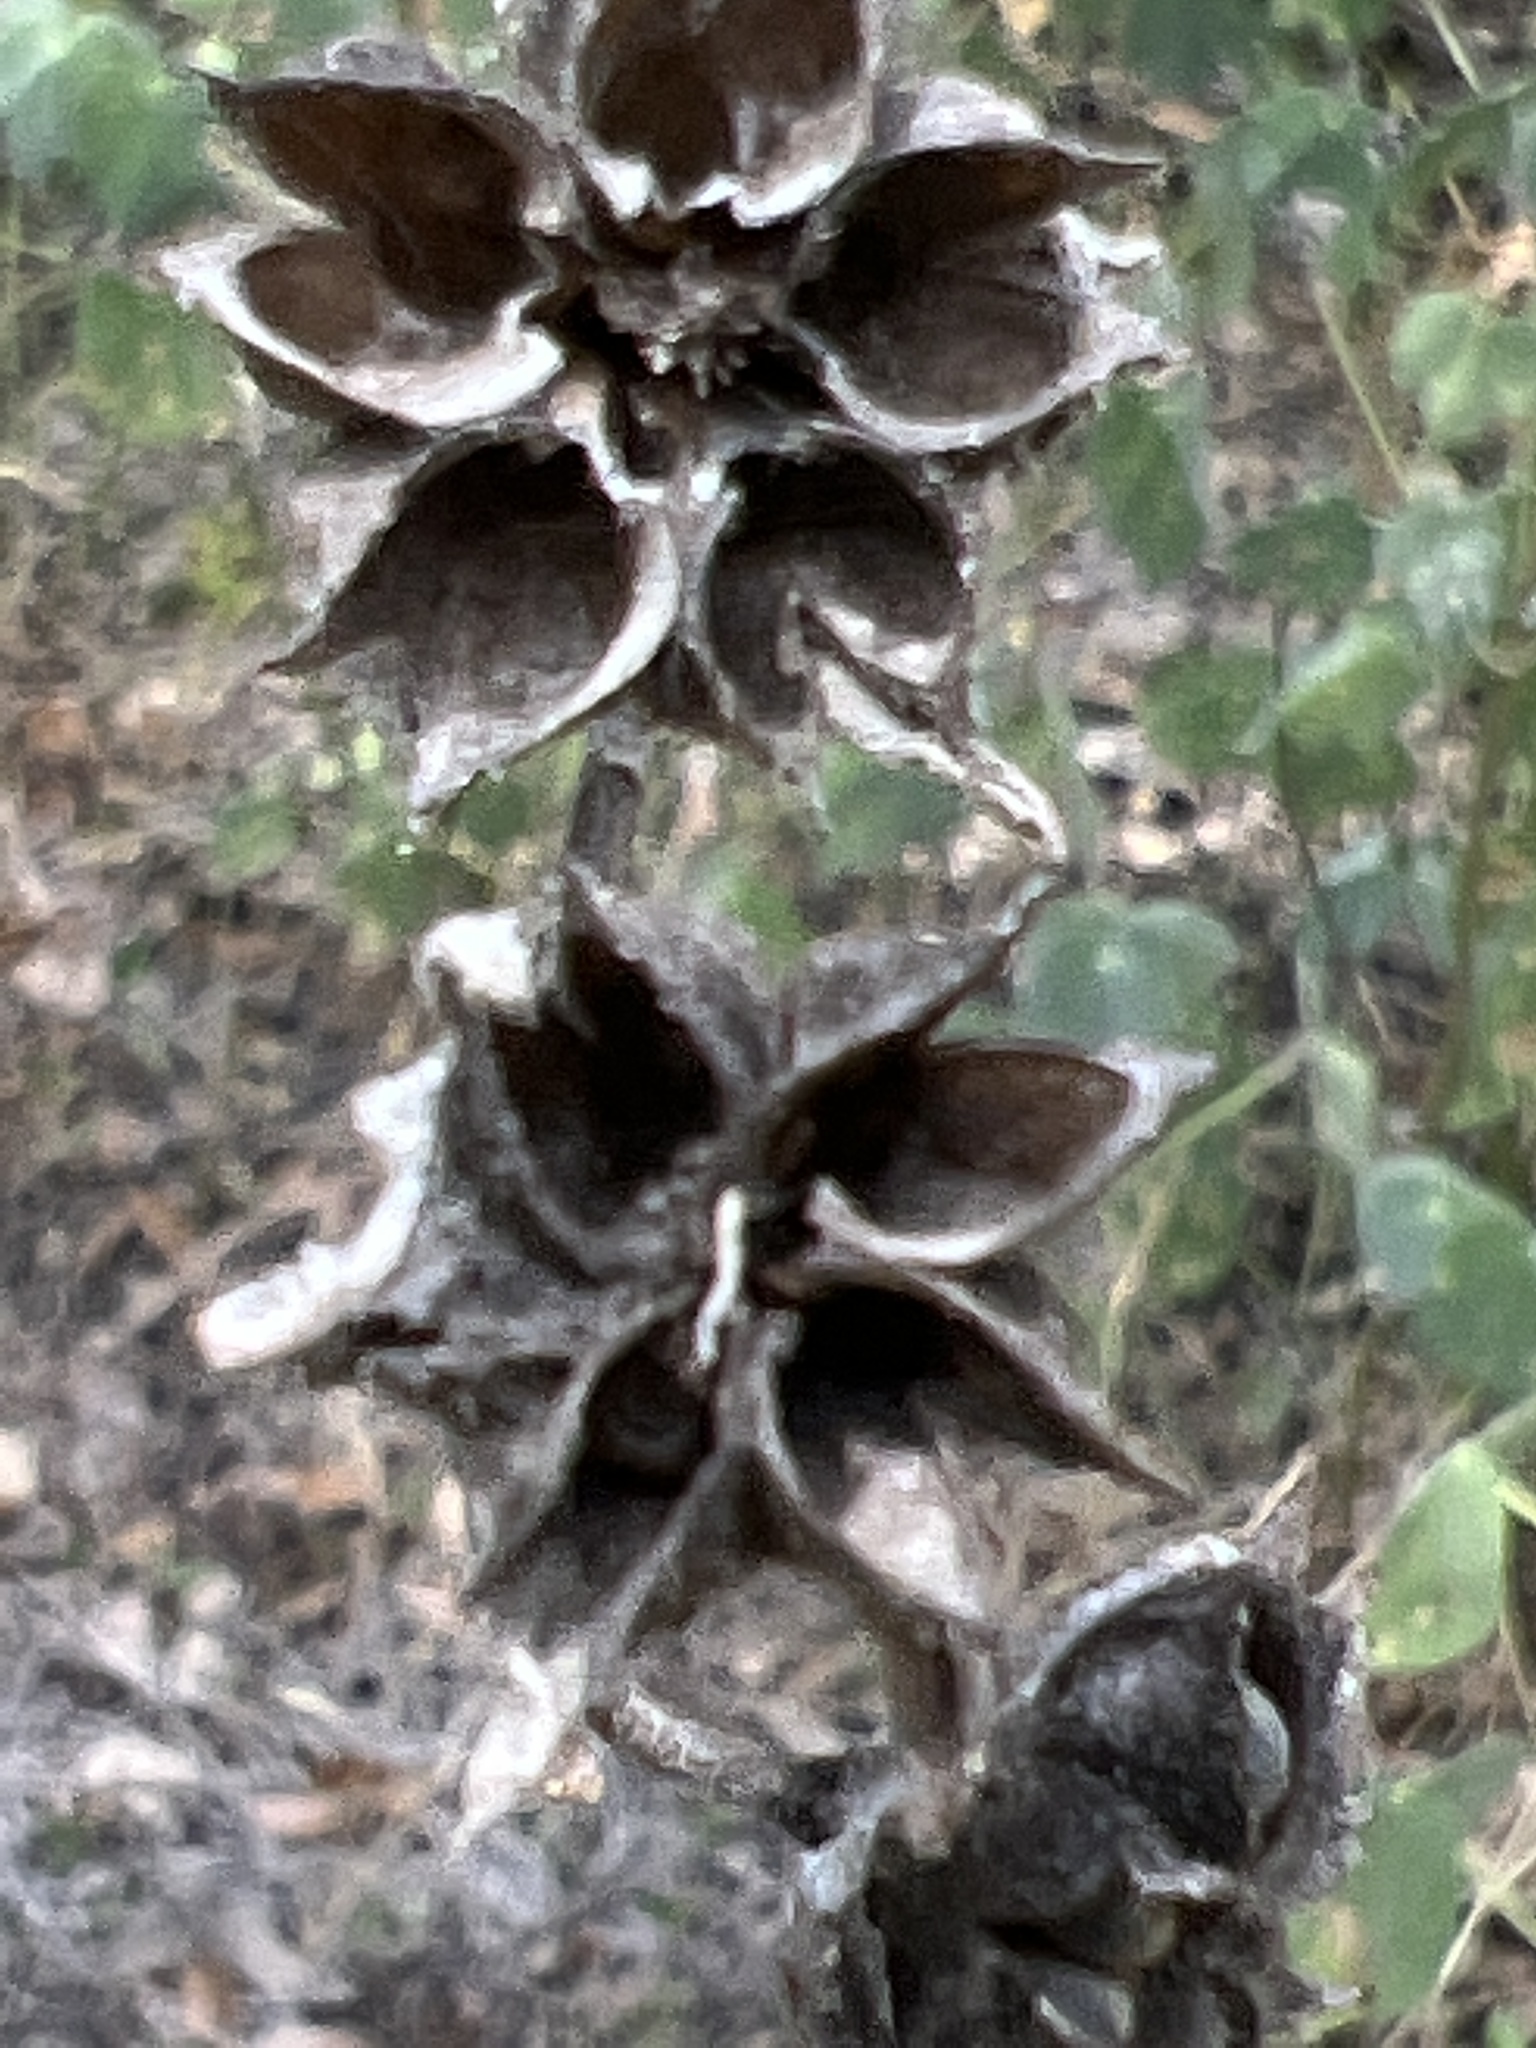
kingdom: Plantae
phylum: Tracheophyta
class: Magnoliopsida
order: Malvales
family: Malvaceae
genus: Allowissadula
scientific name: Allowissadula holosericea
